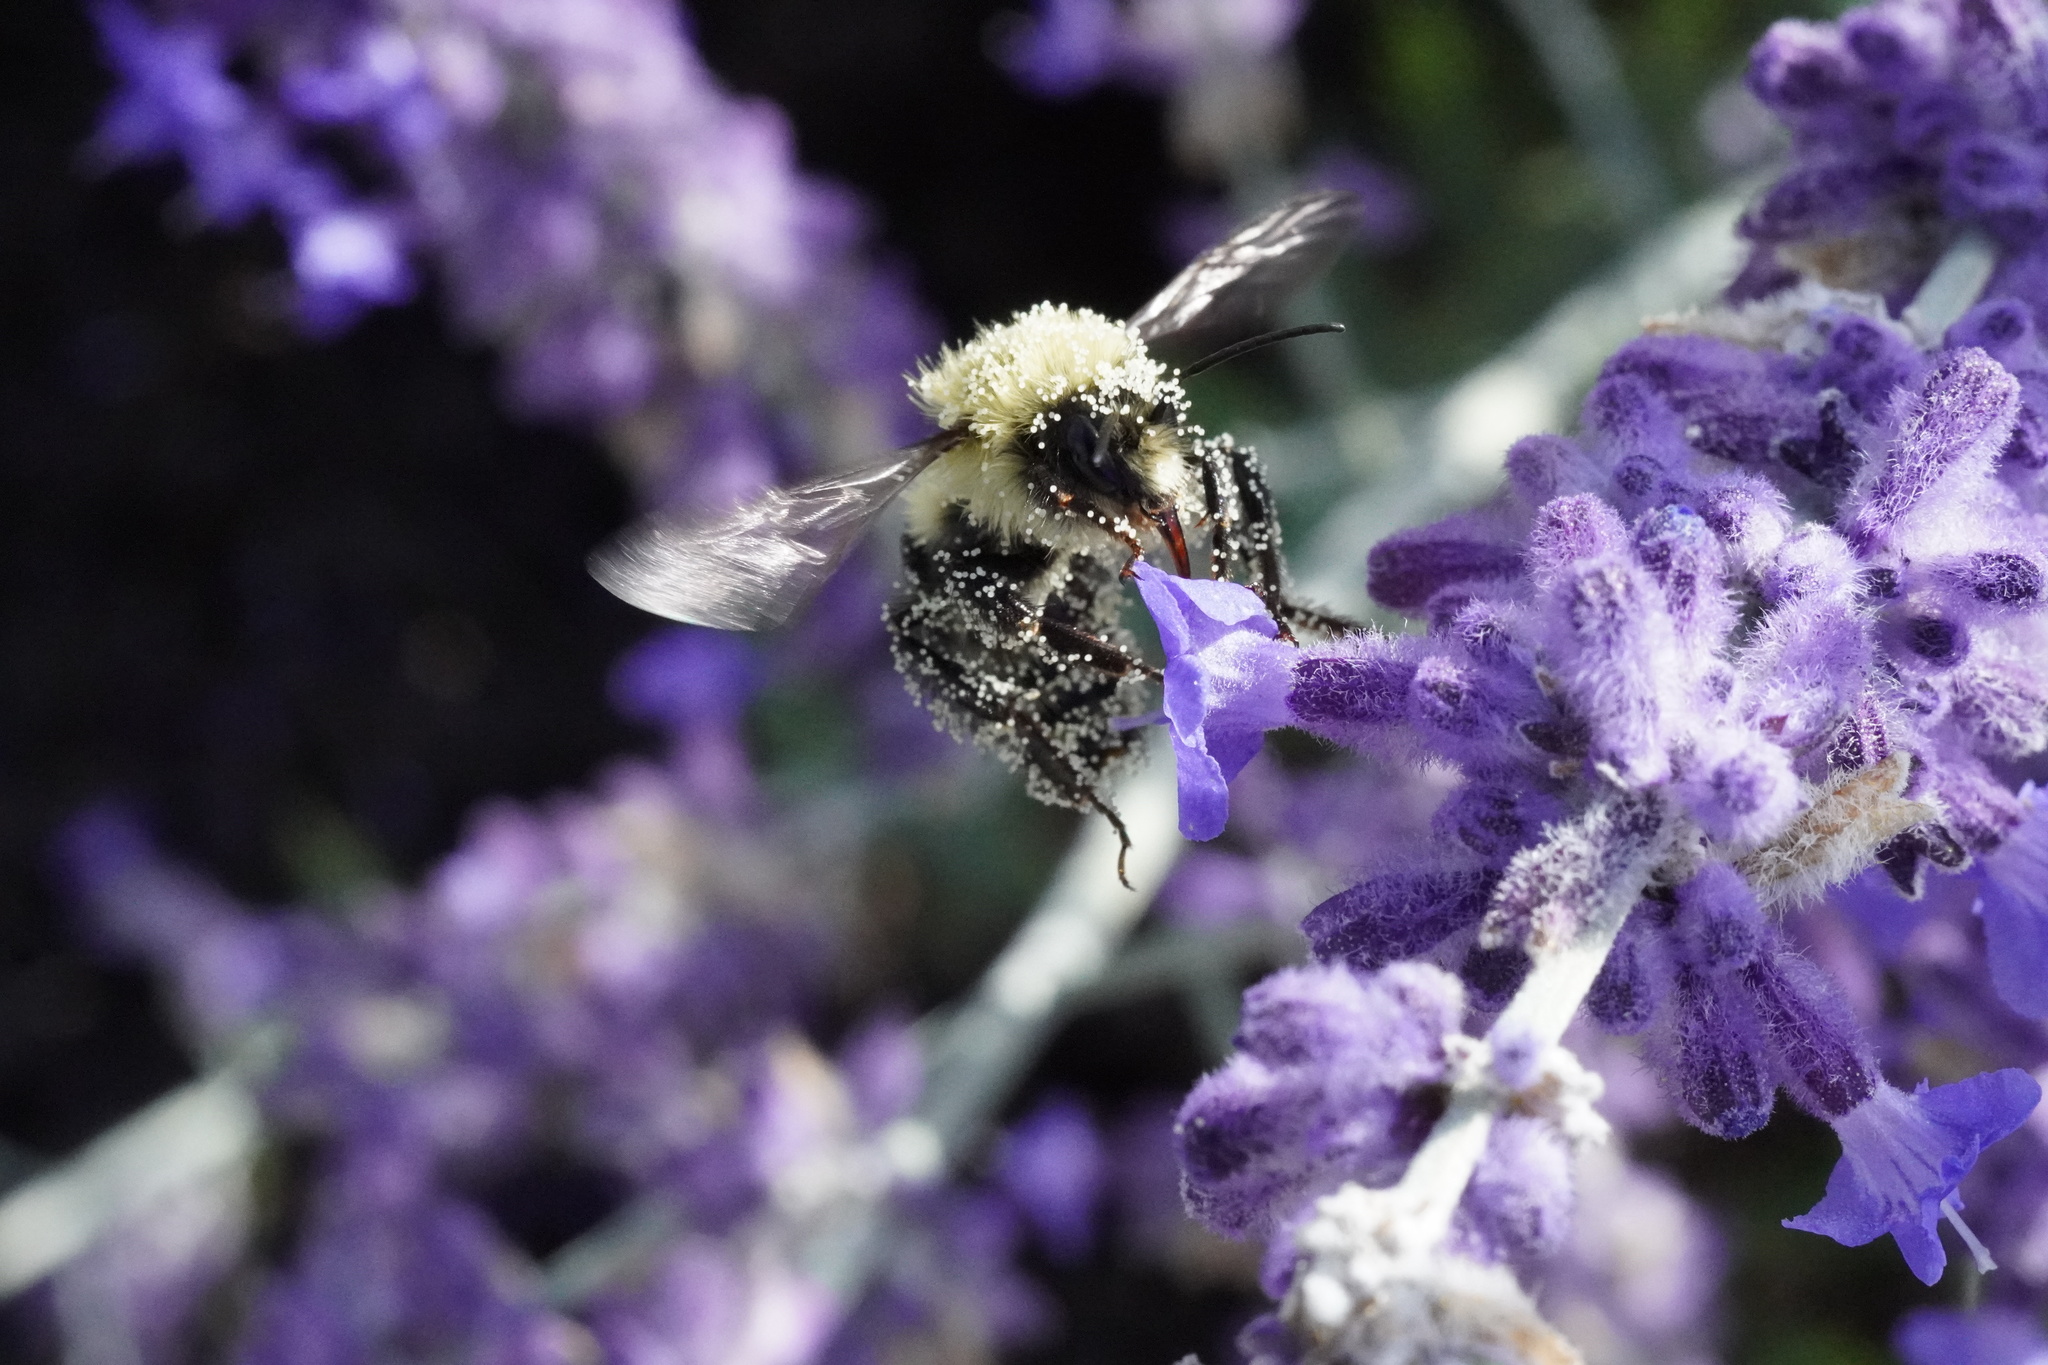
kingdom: Animalia
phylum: Arthropoda
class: Insecta
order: Hymenoptera
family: Apidae
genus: Bombus
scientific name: Bombus impatiens
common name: Common eastern bumble bee
